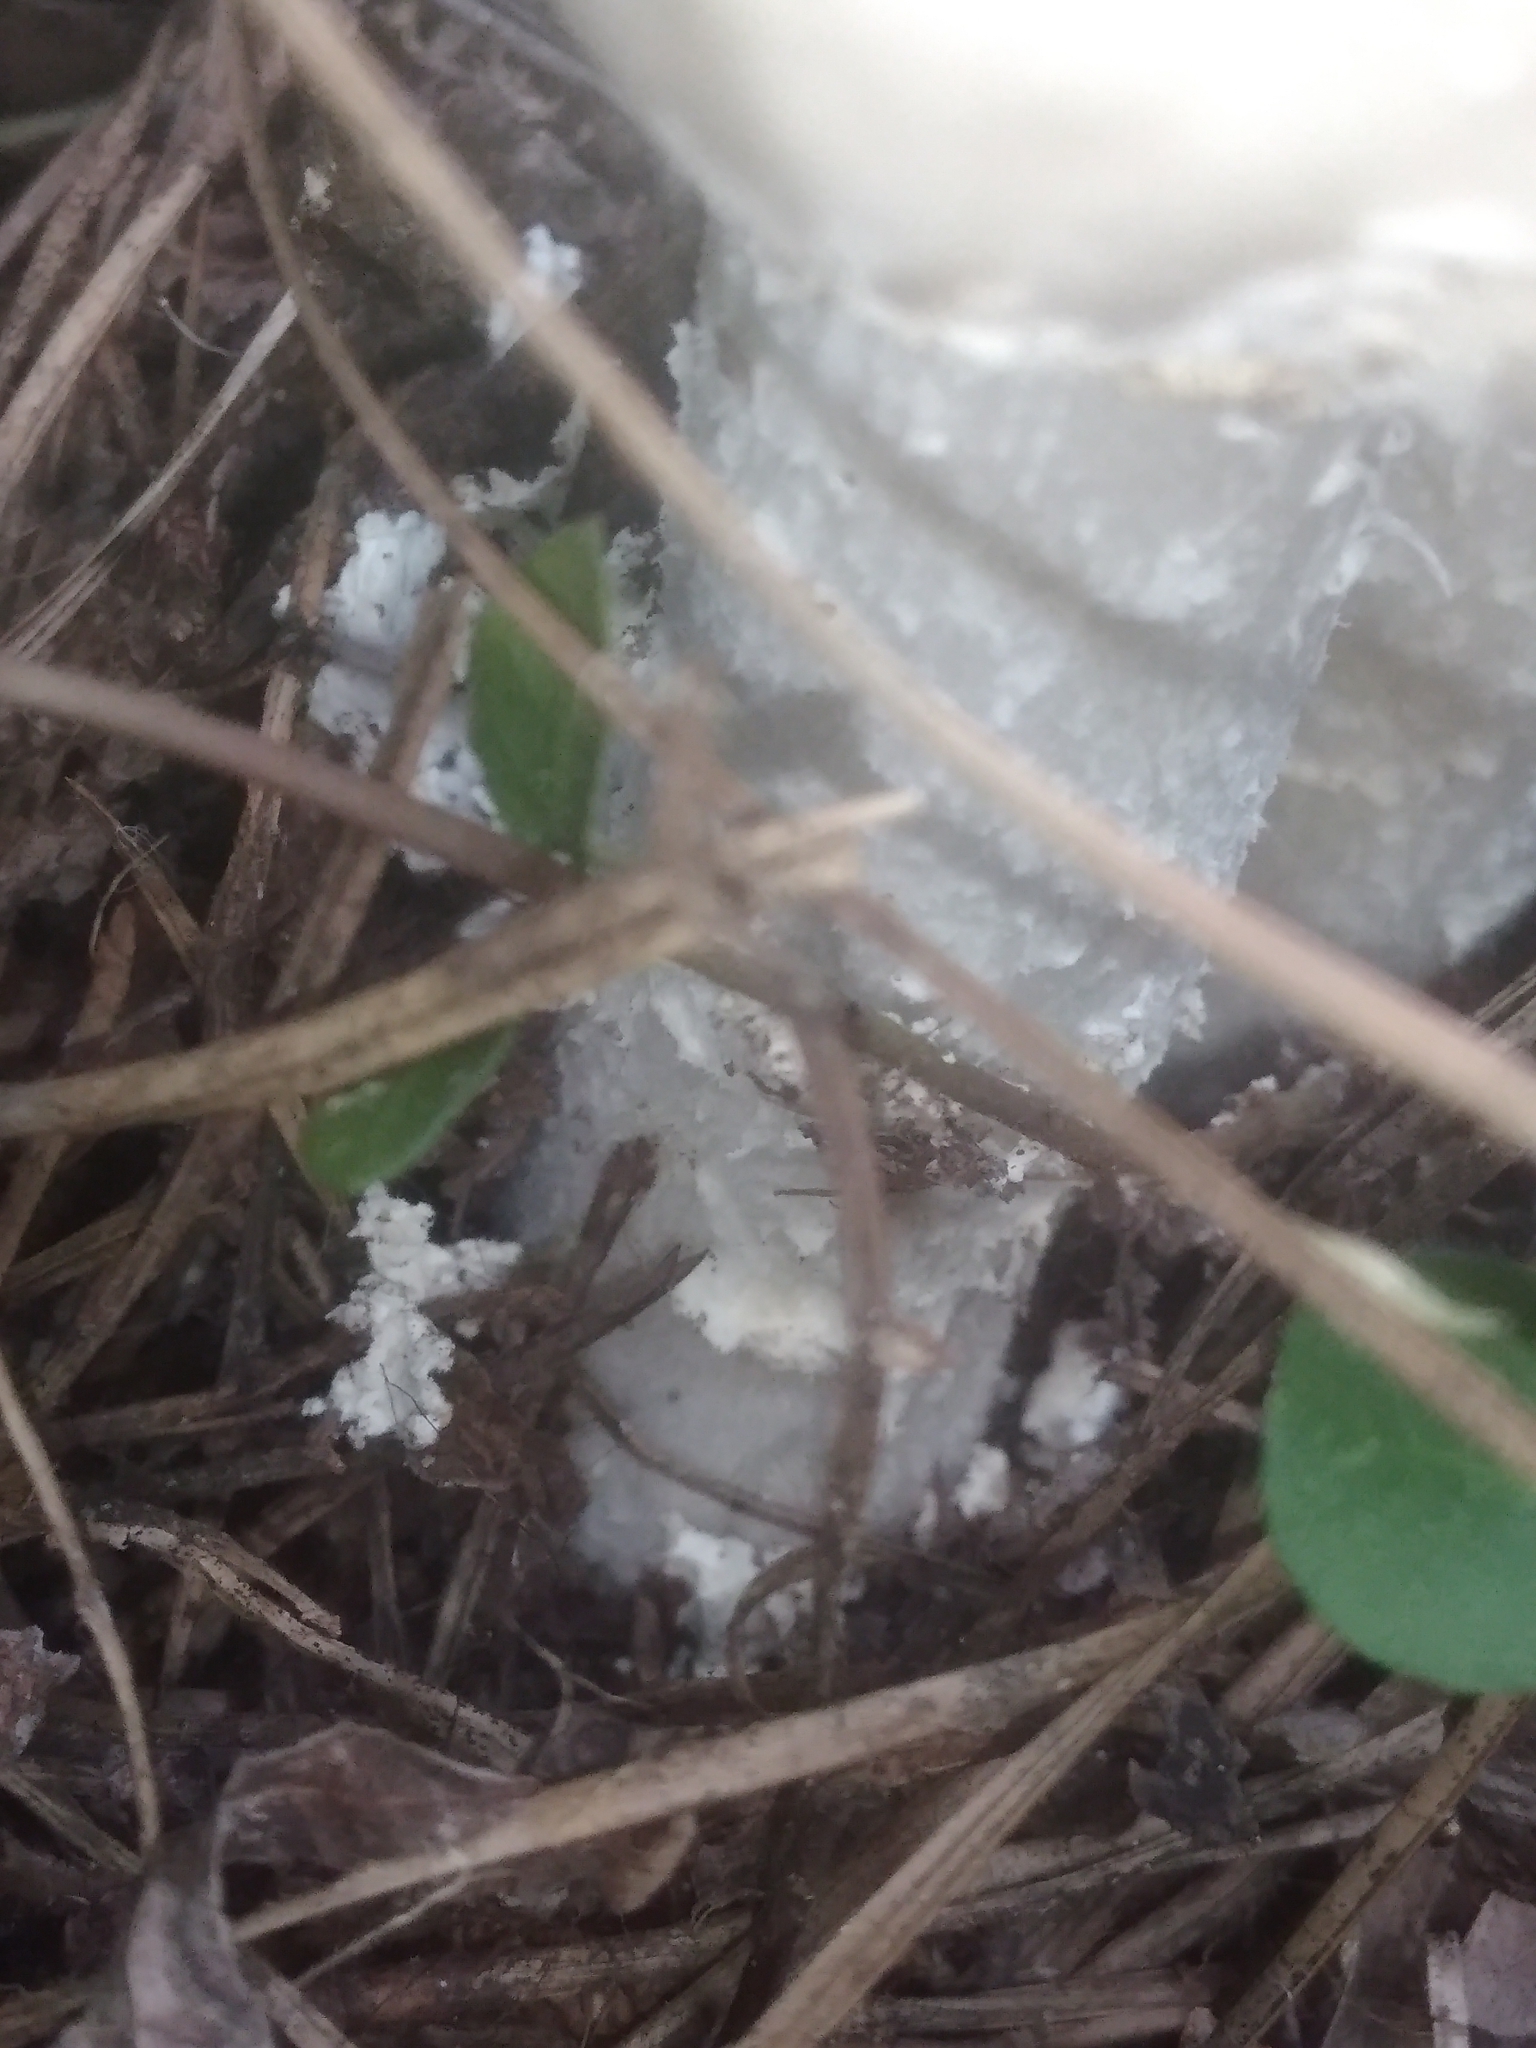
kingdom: Fungi
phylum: Basidiomycota
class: Agaricomycetes
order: Agaricales
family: Amanitaceae
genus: Amanita
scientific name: Amanita bisporigera
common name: Eastern north american destroying angel
